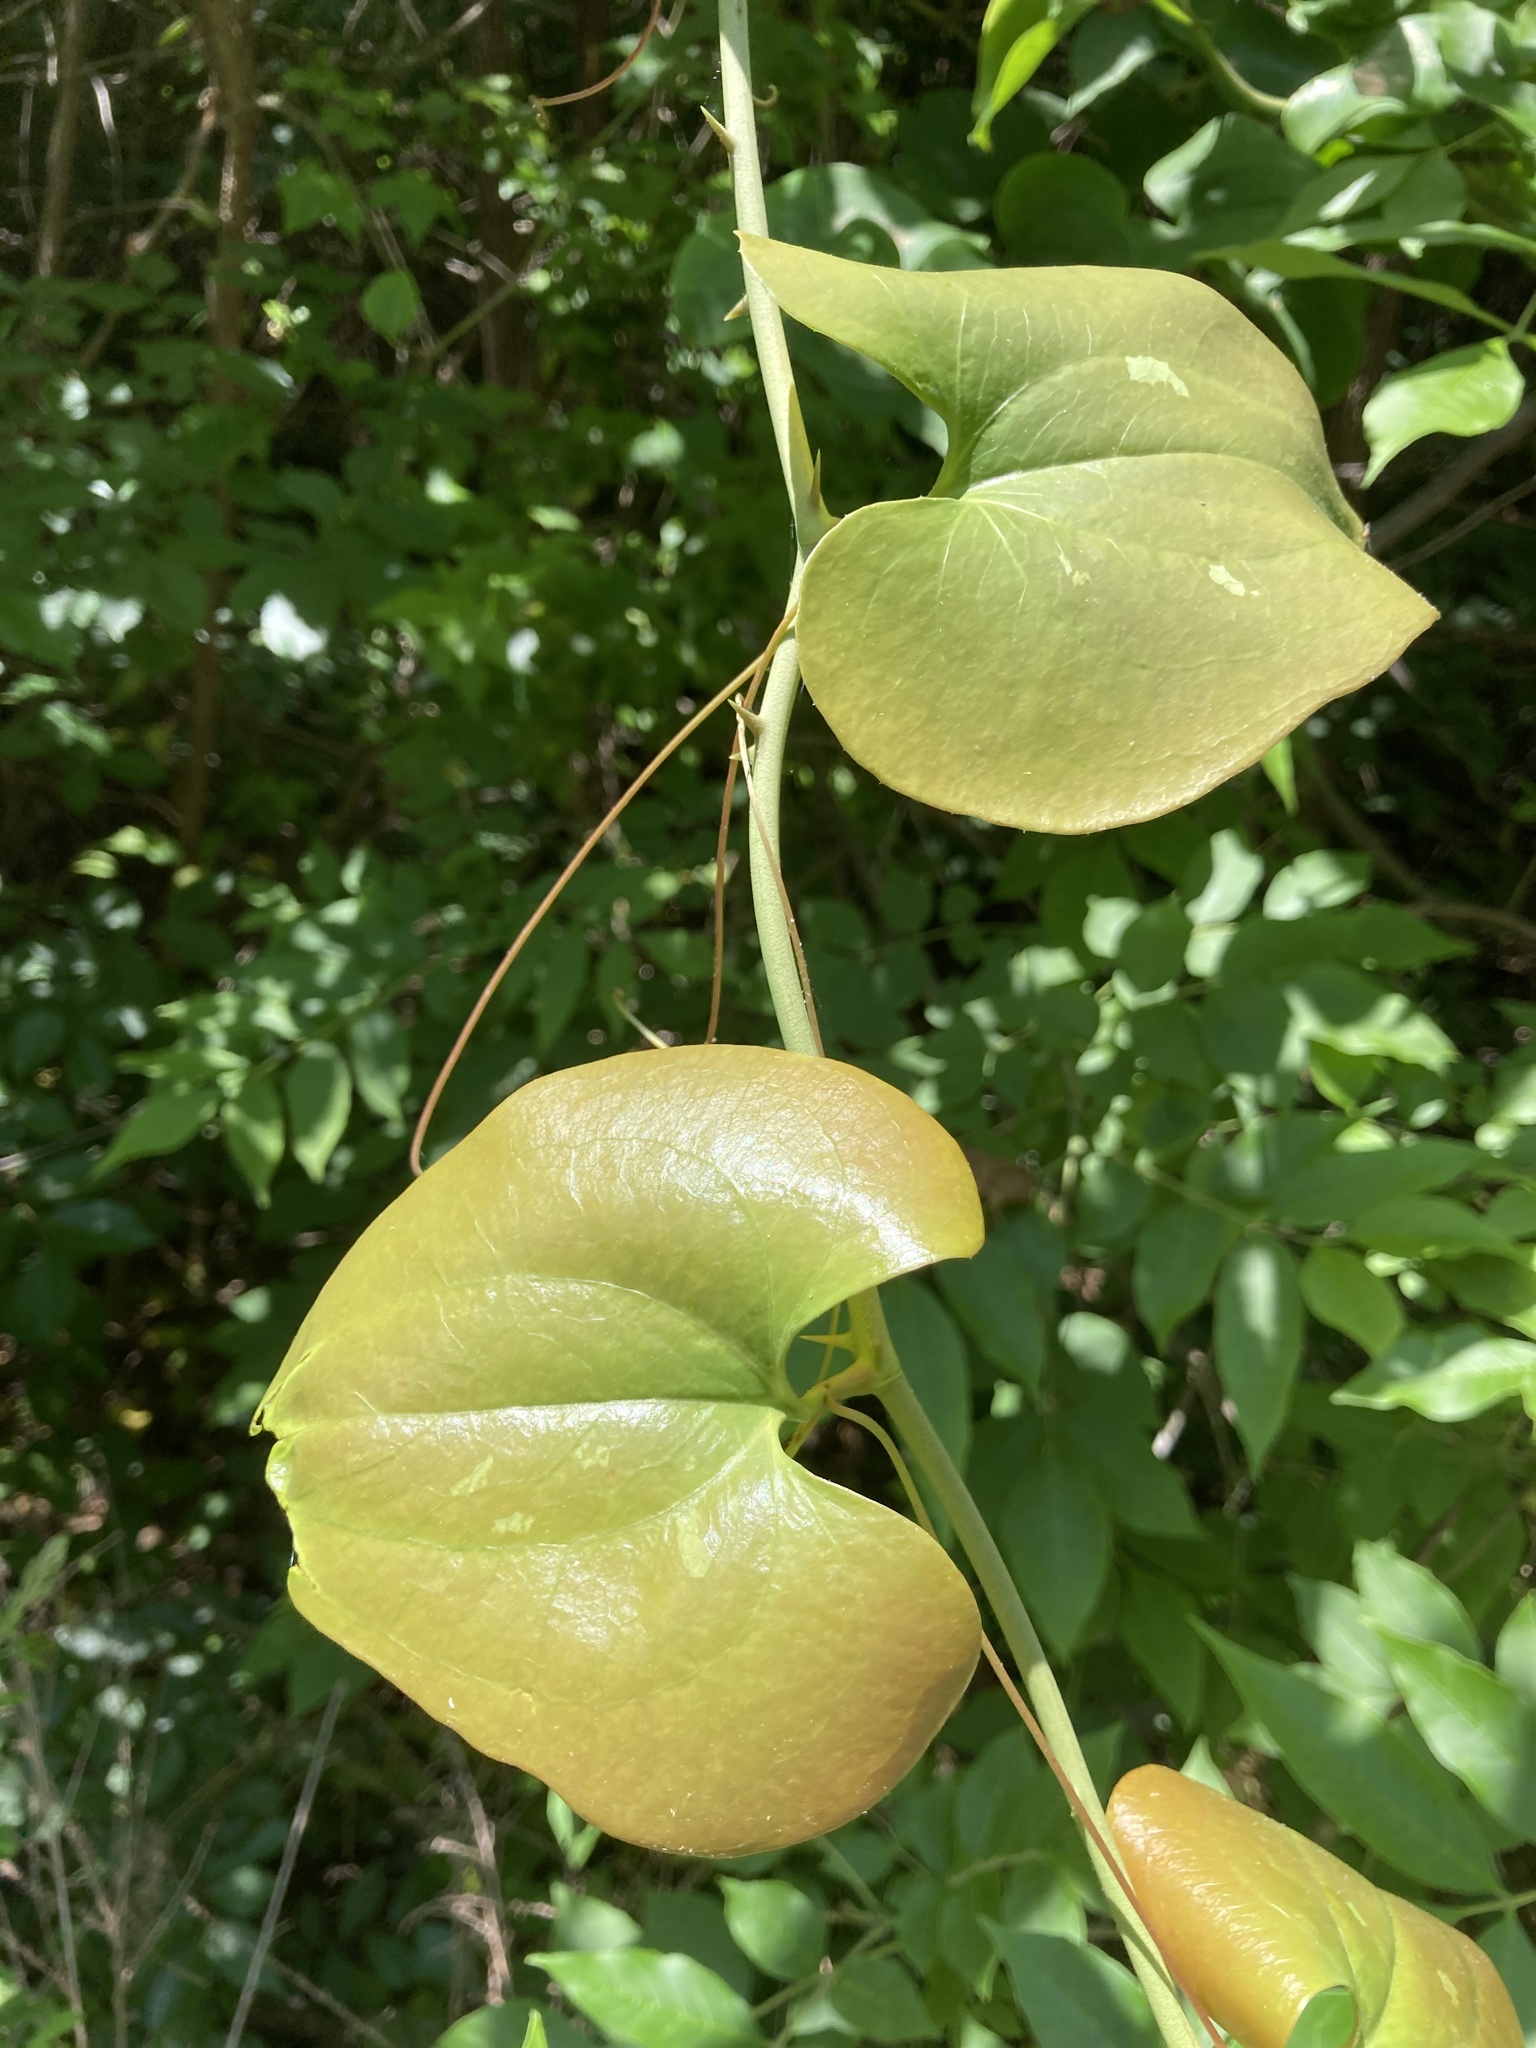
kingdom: Plantae
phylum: Tracheophyta
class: Liliopsida
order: Liliales
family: Smilacaceae
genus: Smilax
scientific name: Smilax bona-nox
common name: Catbrier
